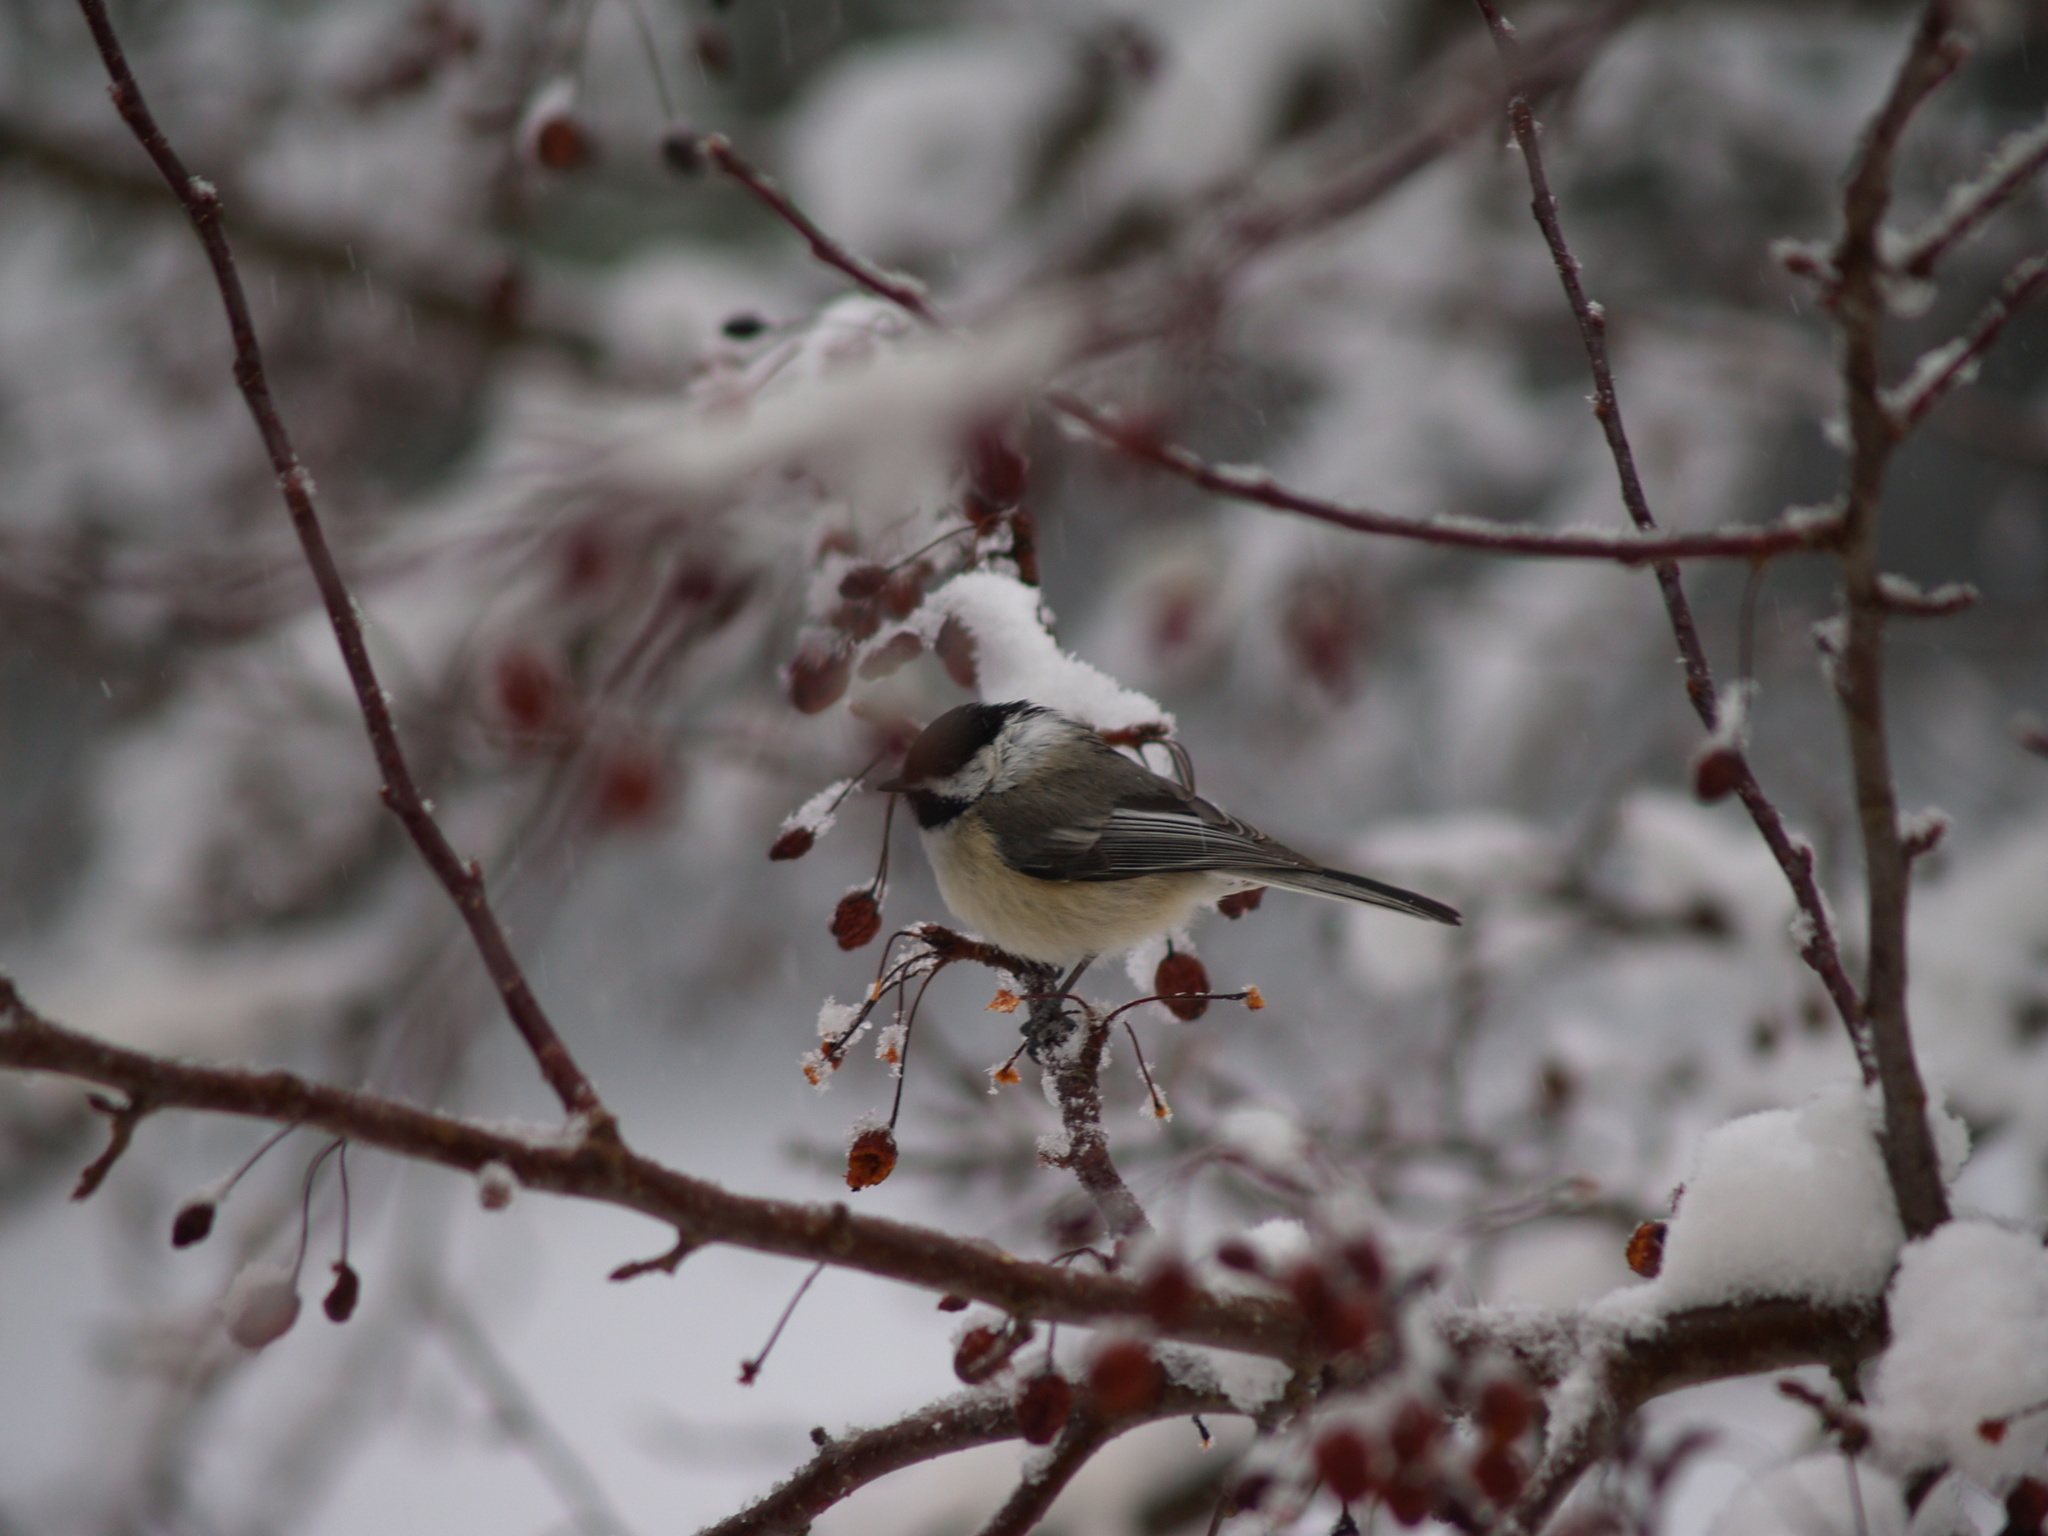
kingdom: Animalia
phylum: Chordata
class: Aves
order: Passeriformes
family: Paridae
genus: Poecile
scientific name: Poecile atricapillus
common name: Black-capped chickadee
